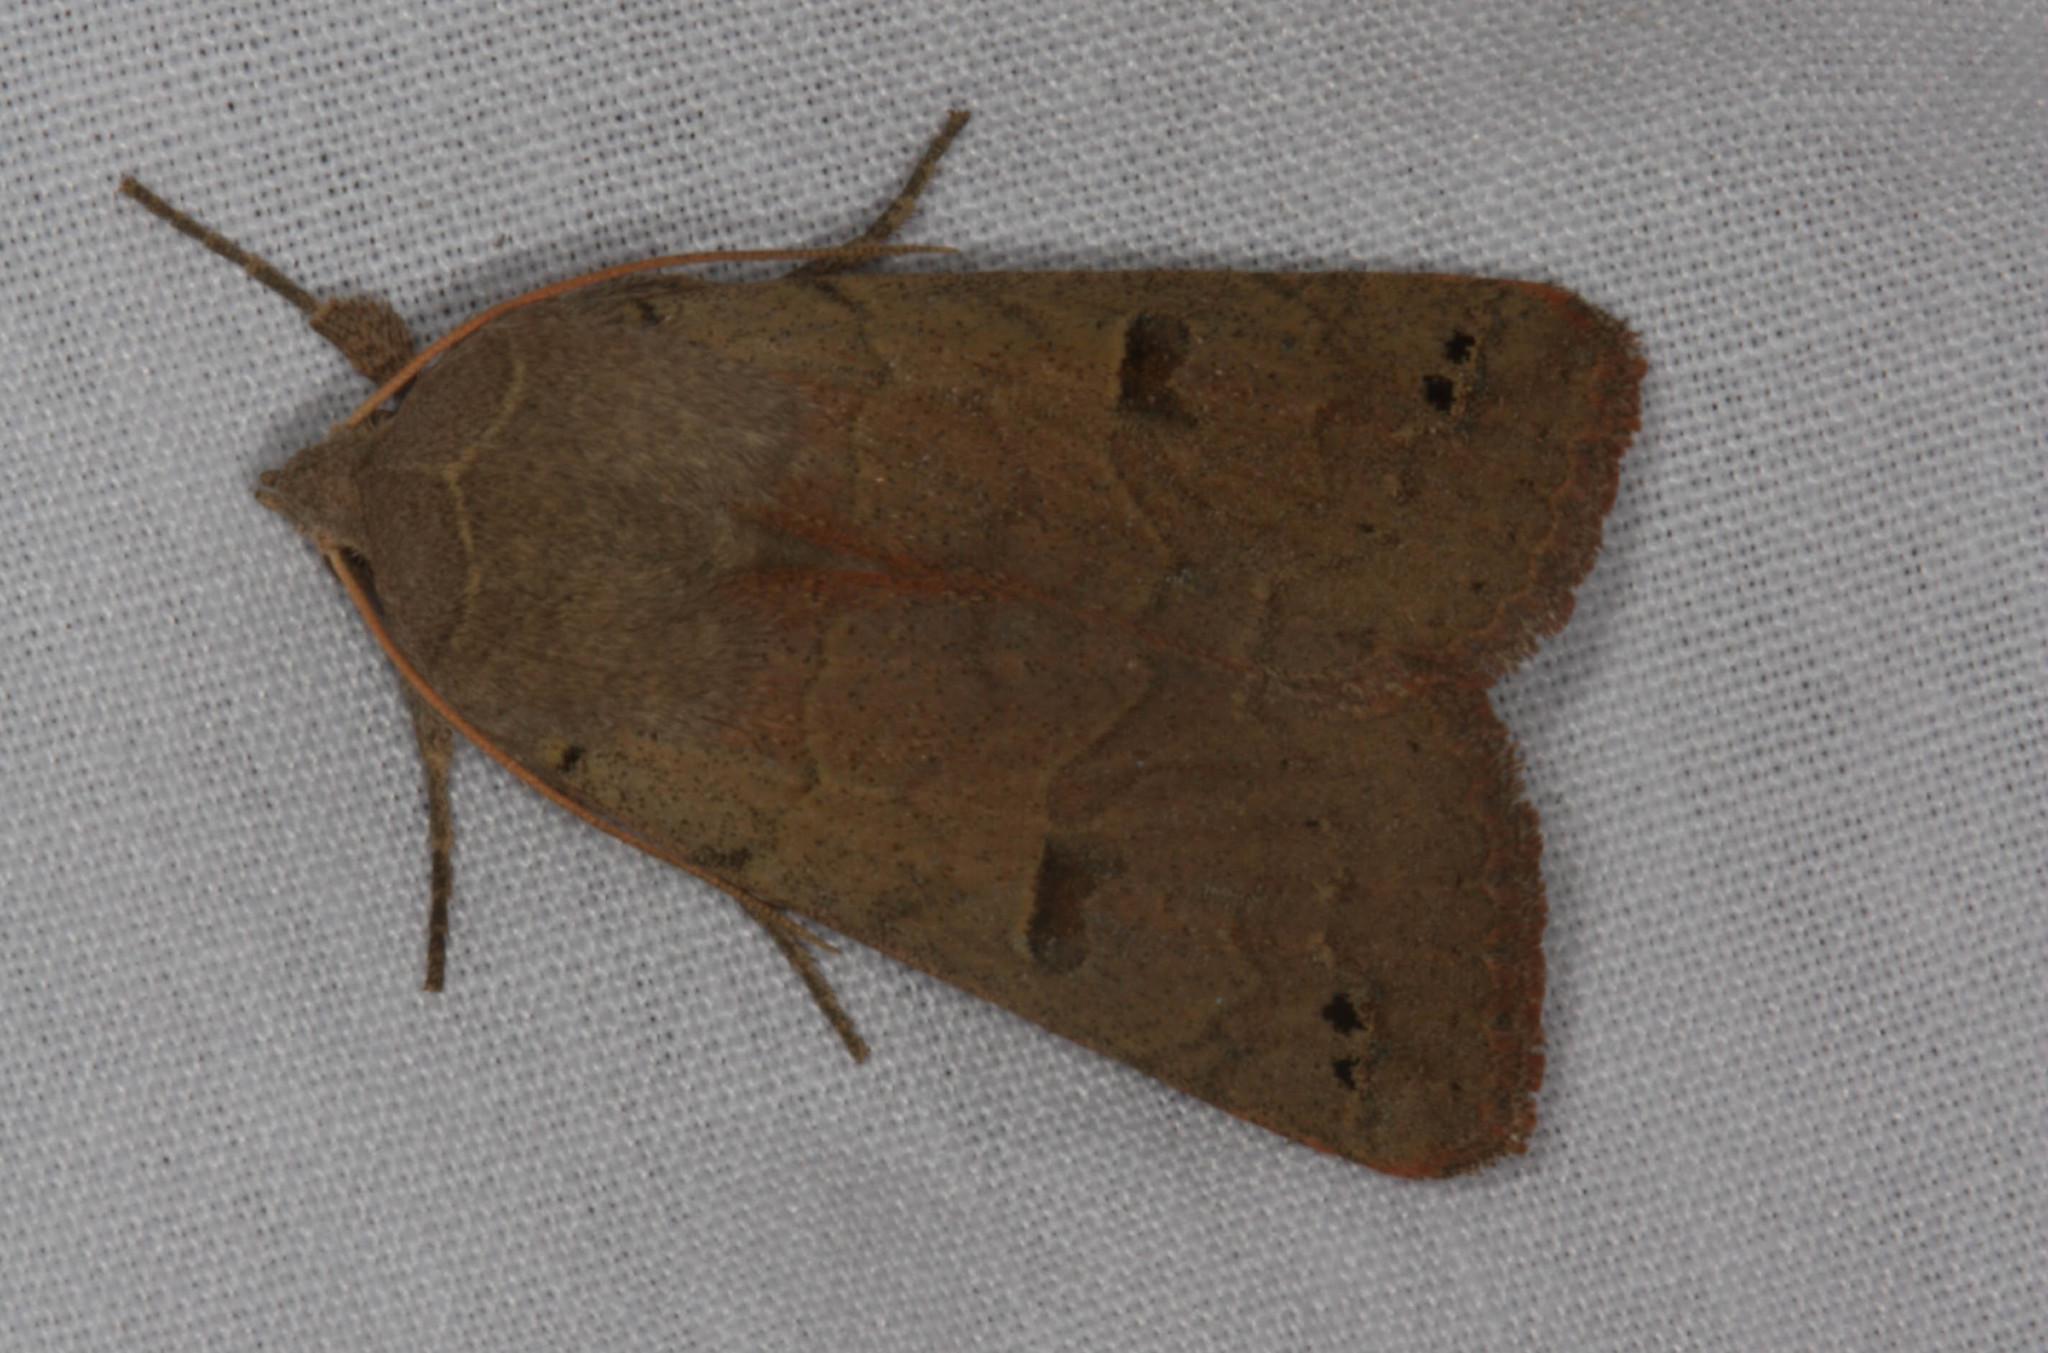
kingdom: Animalia
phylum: Arthropoda
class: Insecta
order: Lepidoptera
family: Erebidae
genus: Cissusa
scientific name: Cissusa indiscreta
